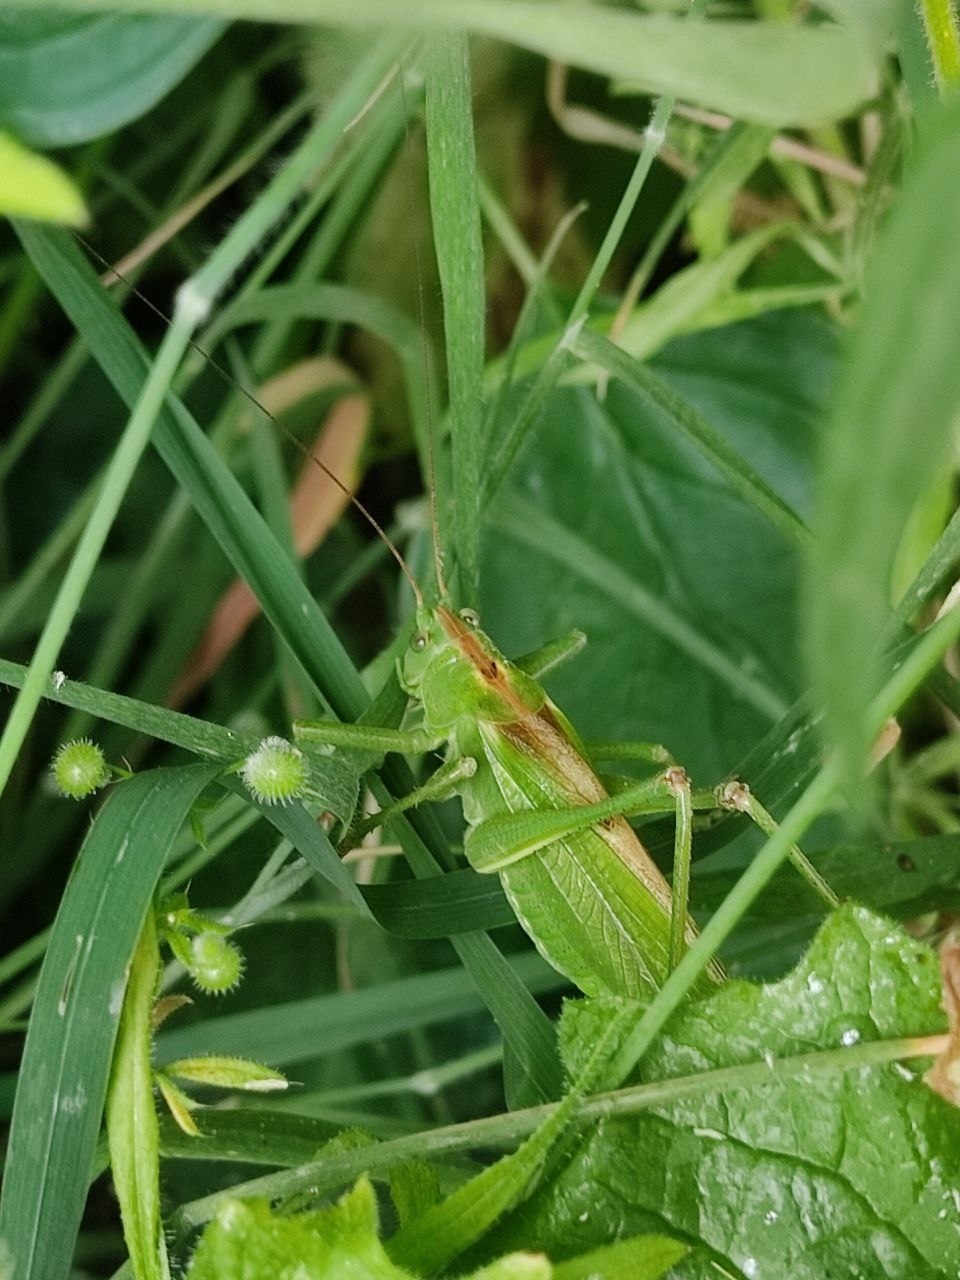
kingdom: Animalia
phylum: Arthropoda
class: Insecta
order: Orthoptera
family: Tettigoniidae
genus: Tettigonia
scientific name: Tettigonia viridissima
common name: Great green bush-cricket
